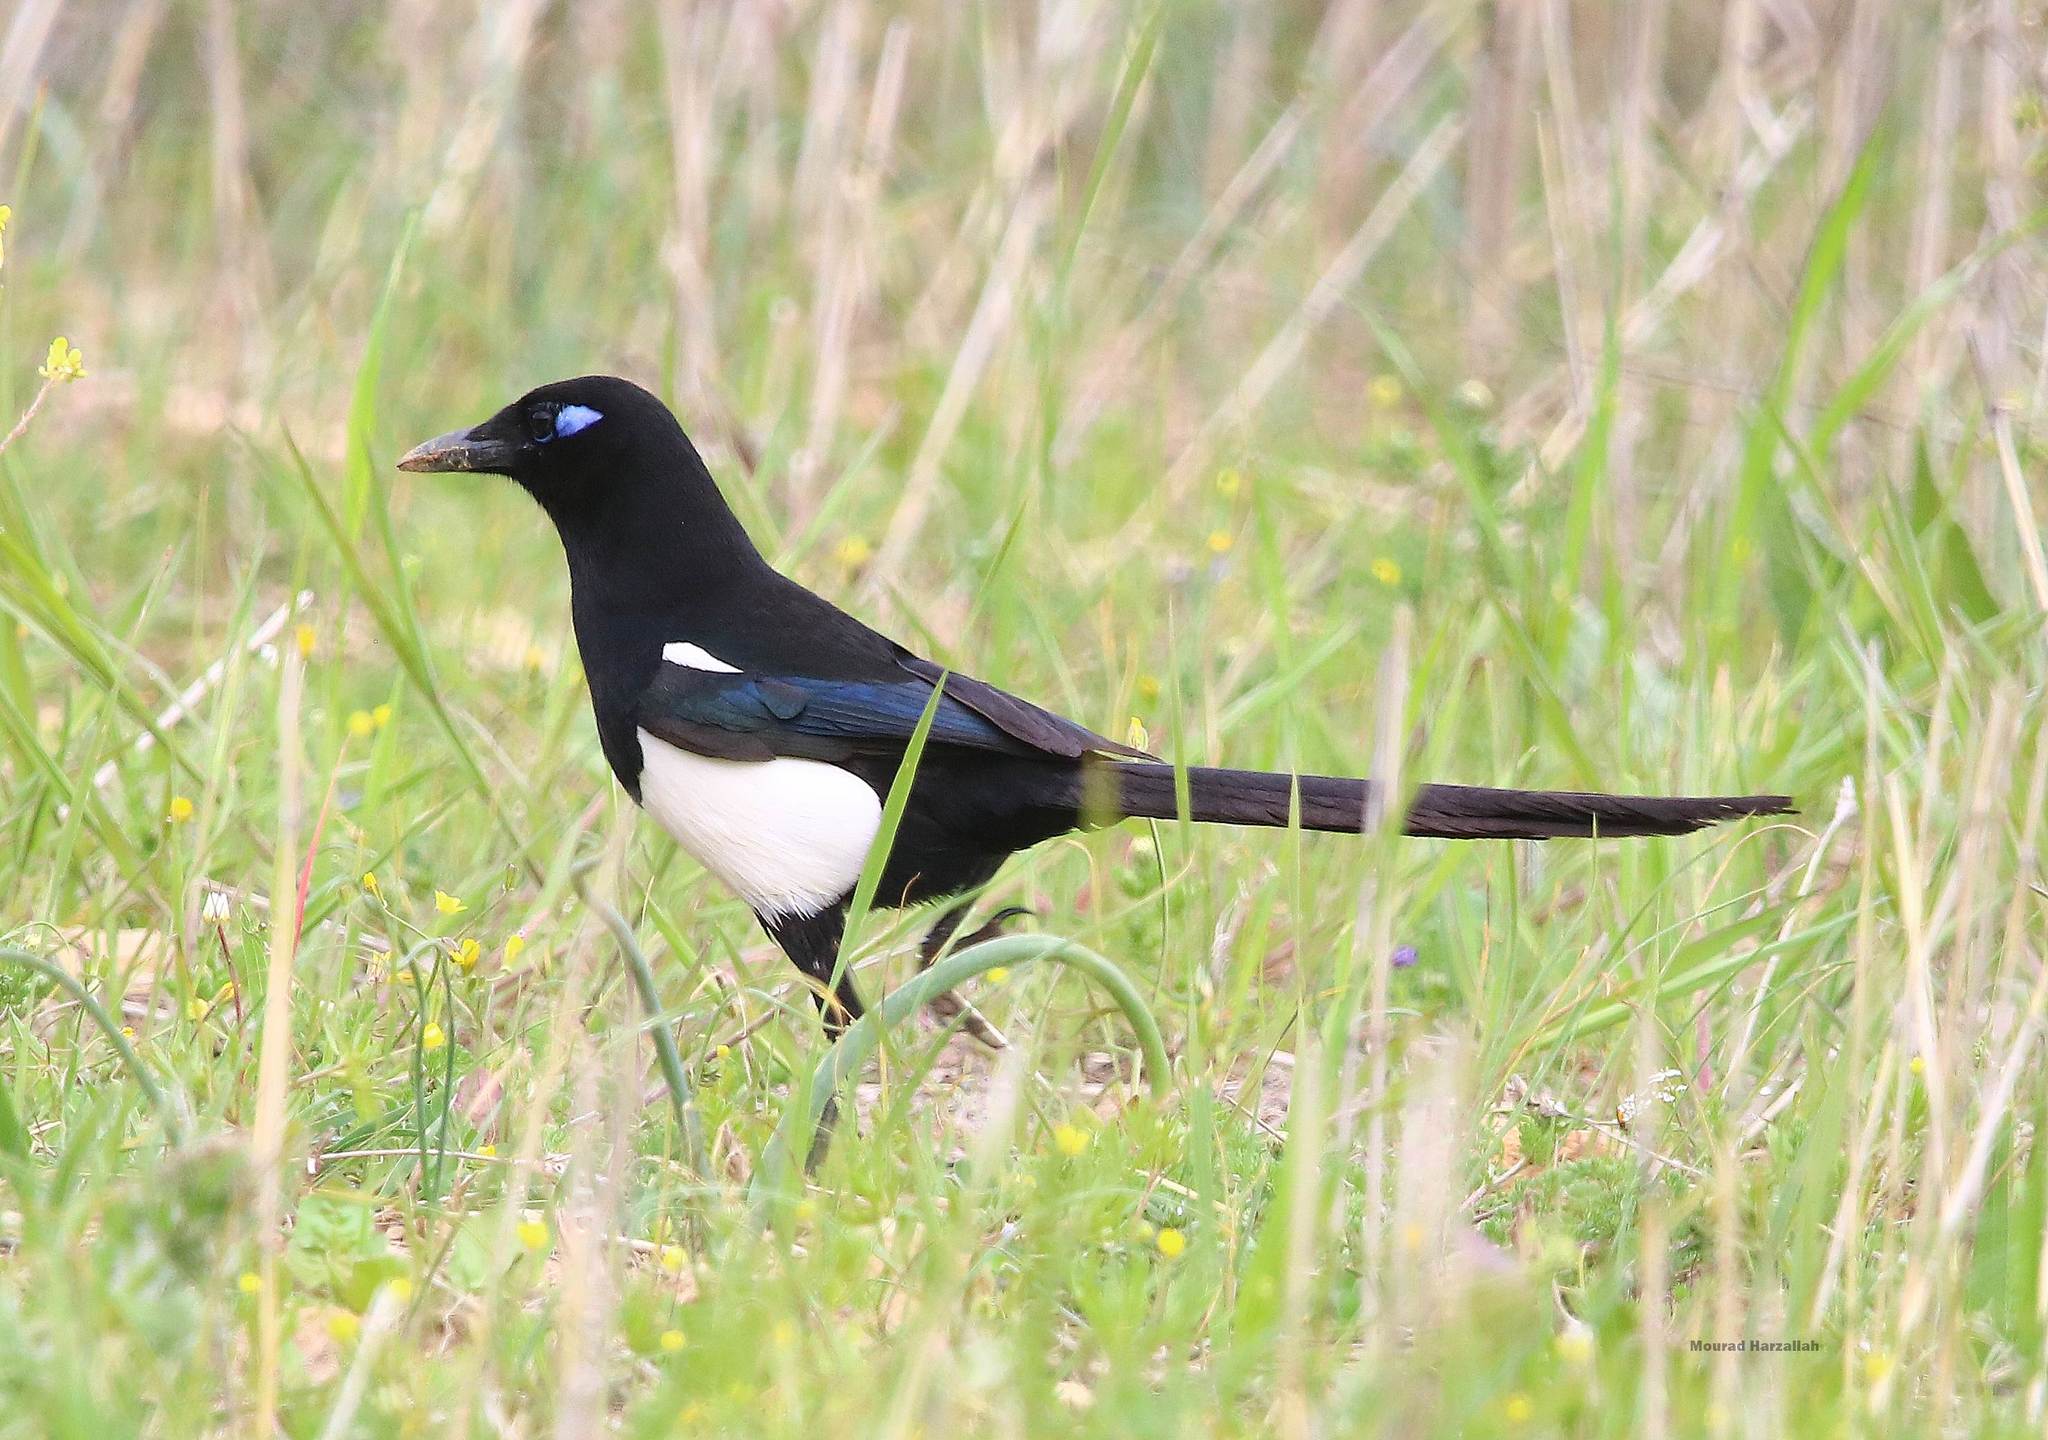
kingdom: Animalia
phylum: Chordata
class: Aves
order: Passeriformes
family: Corvidae
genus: Pica
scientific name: Pica mauritanica
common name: Maghreb magpie
